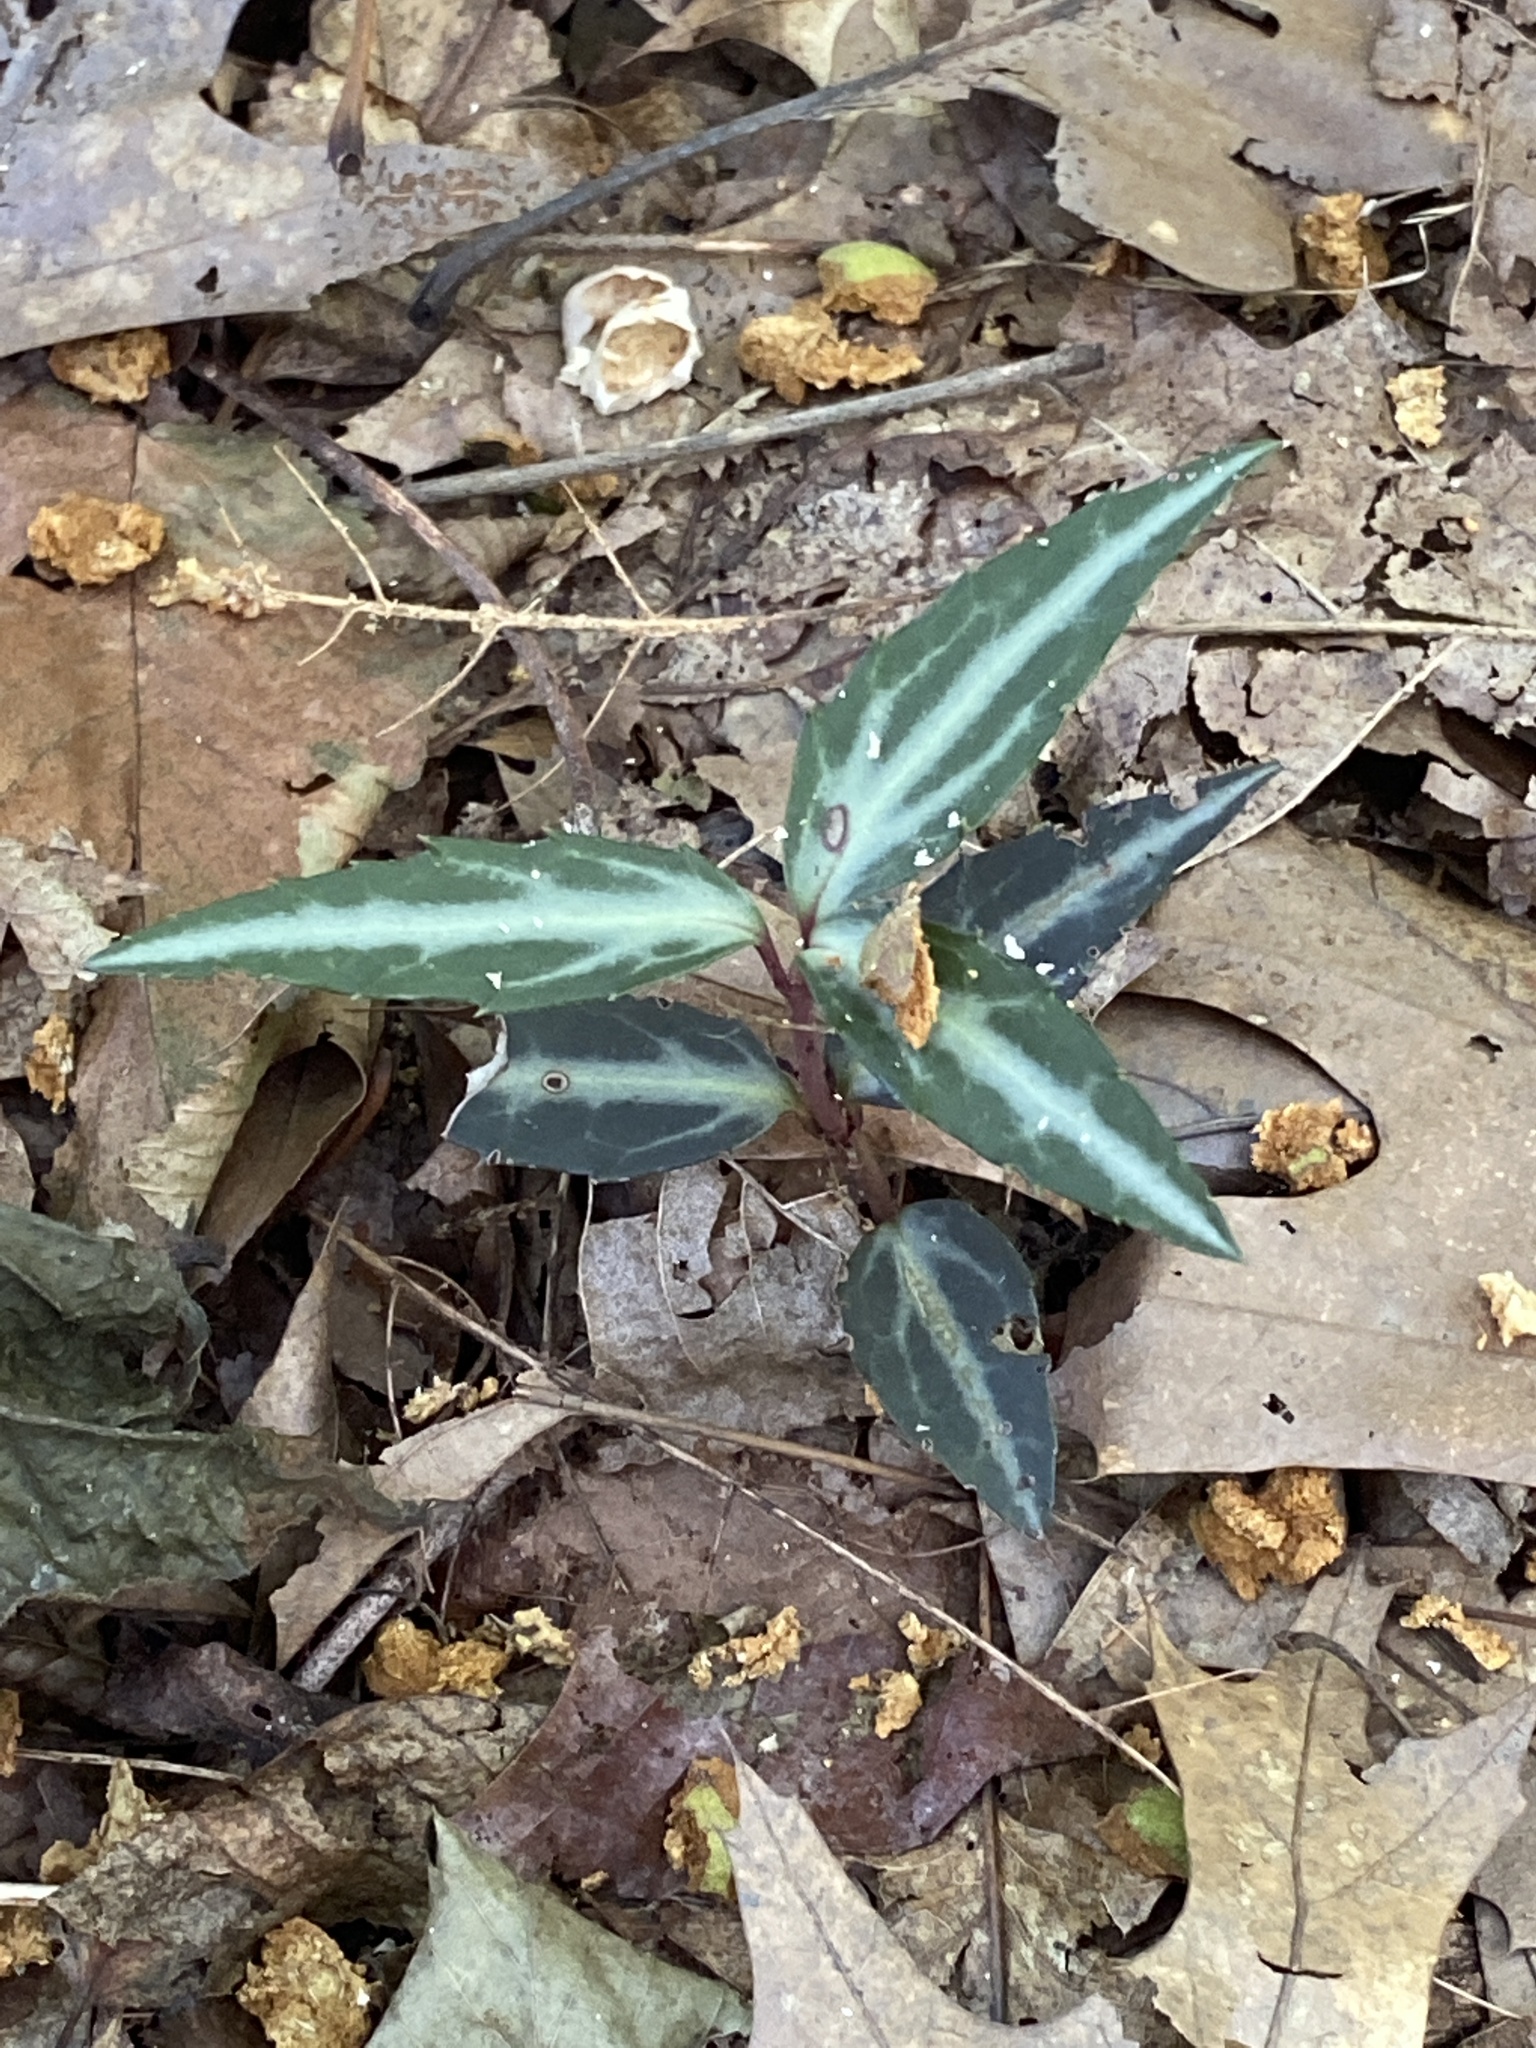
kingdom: Plantae
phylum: Tracheophyta
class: Magnoliopsida
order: Ericales
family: Ericaceae
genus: Chimaphila
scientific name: Chimaphila maculata
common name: Spotted pipsissewa
